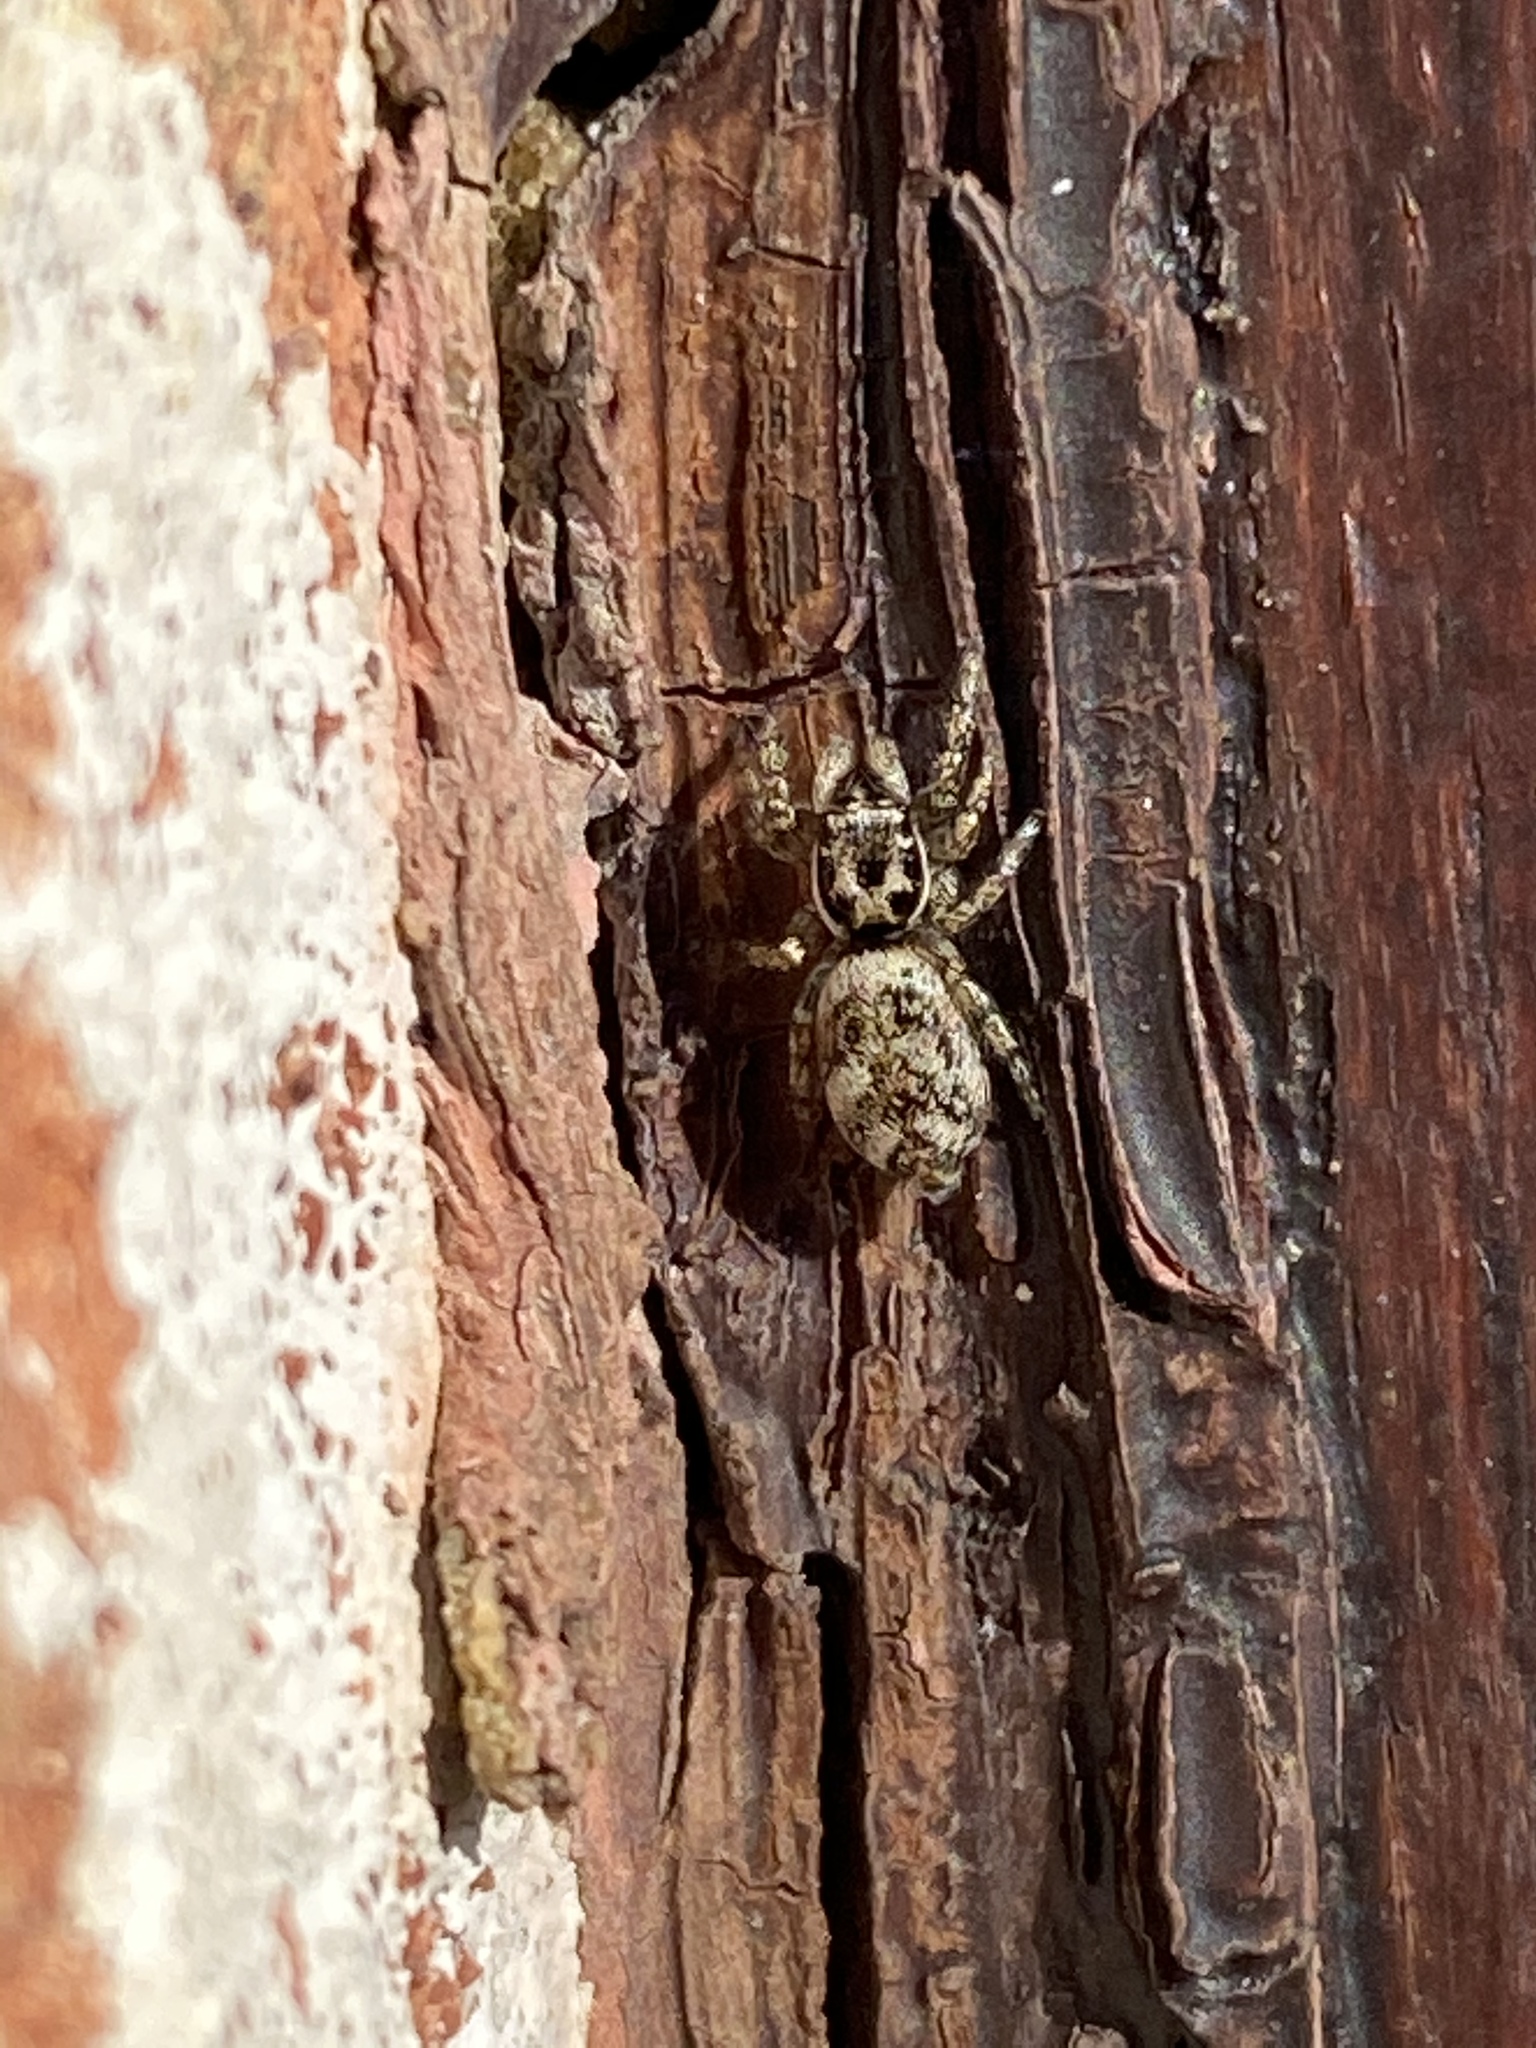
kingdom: Animalia
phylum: Arthropoda
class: Arachnida
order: Araneae
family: Salticidae
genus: Salticus
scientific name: Salticus scenicus
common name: Zebra jumper
